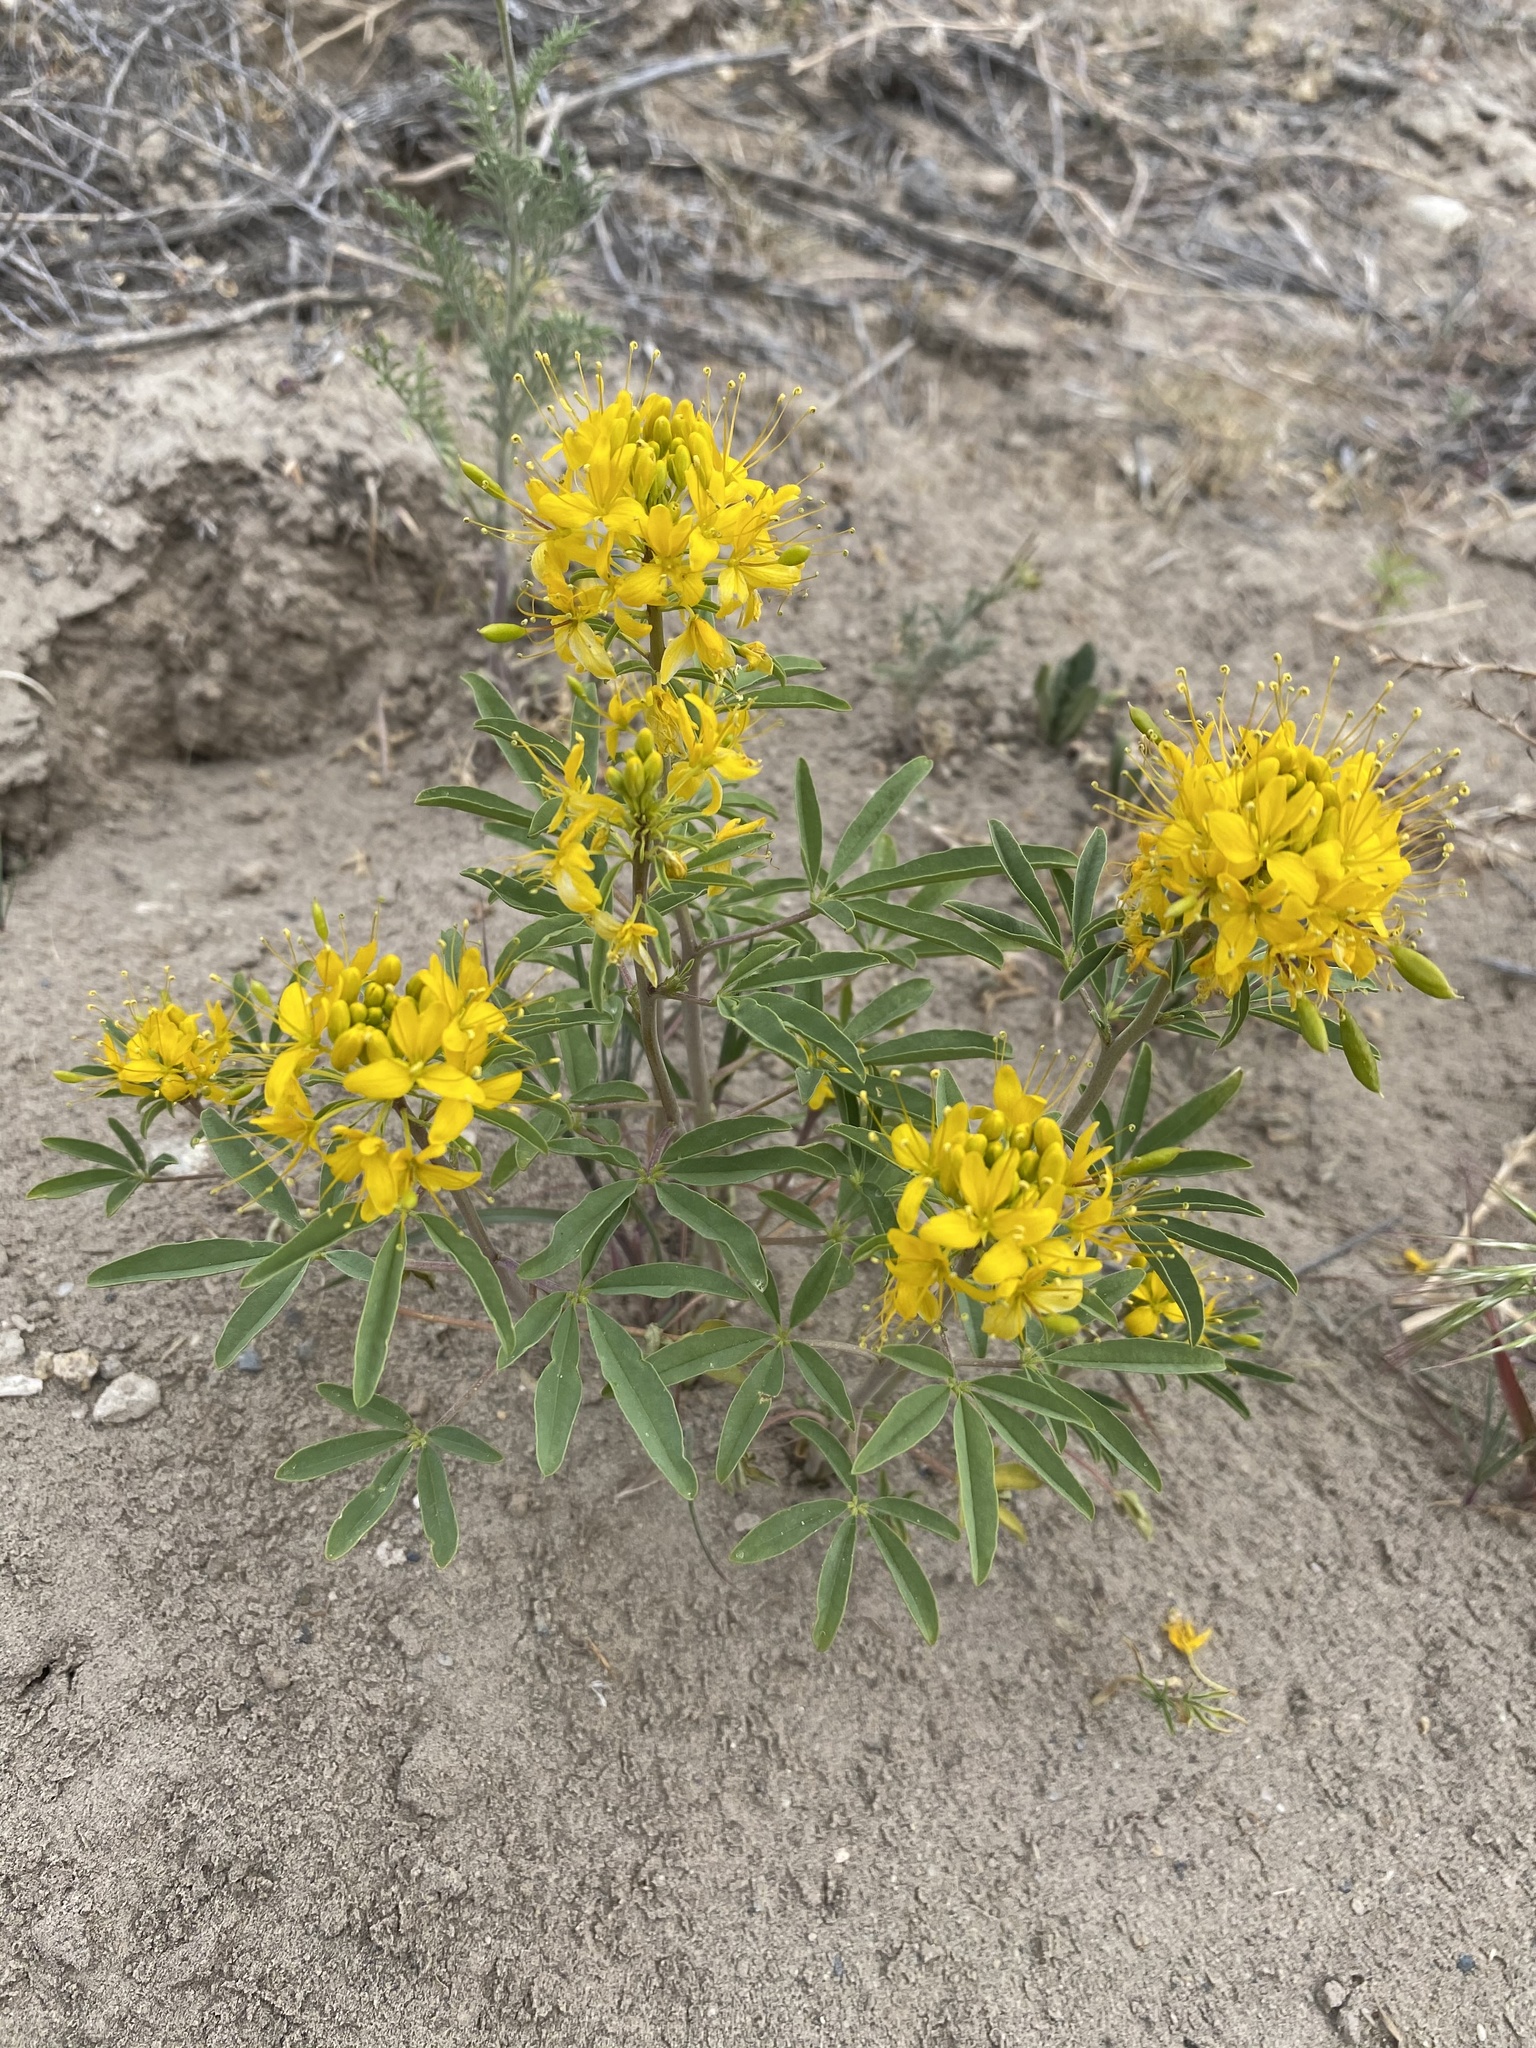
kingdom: Plantae
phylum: Tracheophyta
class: Magnoliopsida
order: Brassicales
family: Cleomaceae
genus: Cleomella
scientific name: Cleomella lutea
